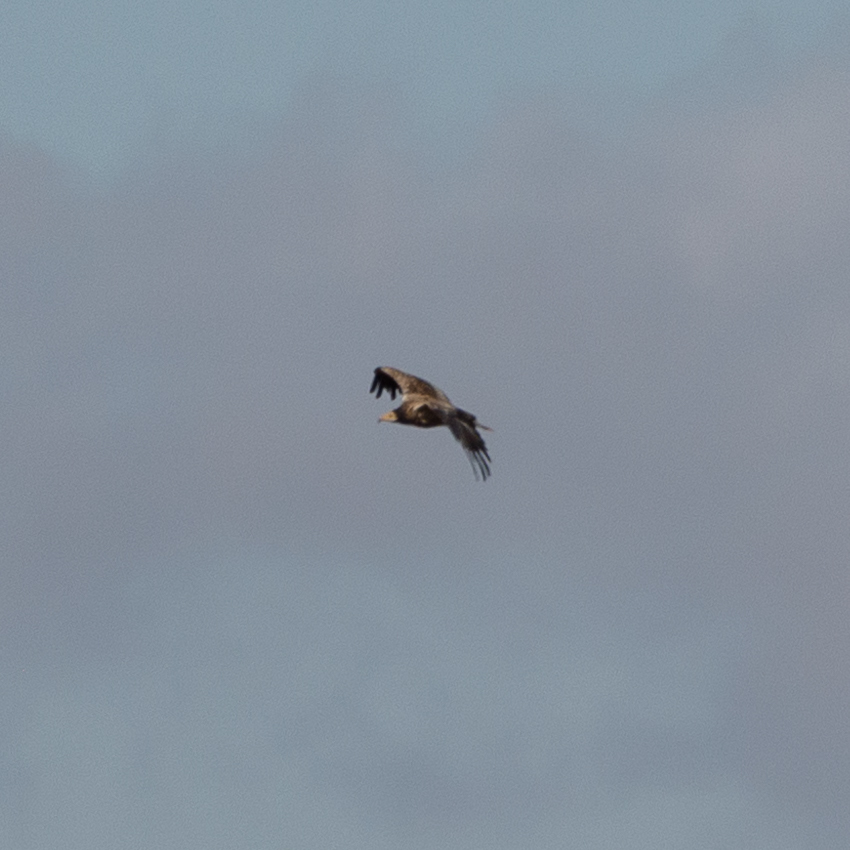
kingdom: Animalia
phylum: Chordata
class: Aves
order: Accipitriformes
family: Accipitridae
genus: Neophron
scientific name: Neophron percnopterus
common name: Egyptian vulture
